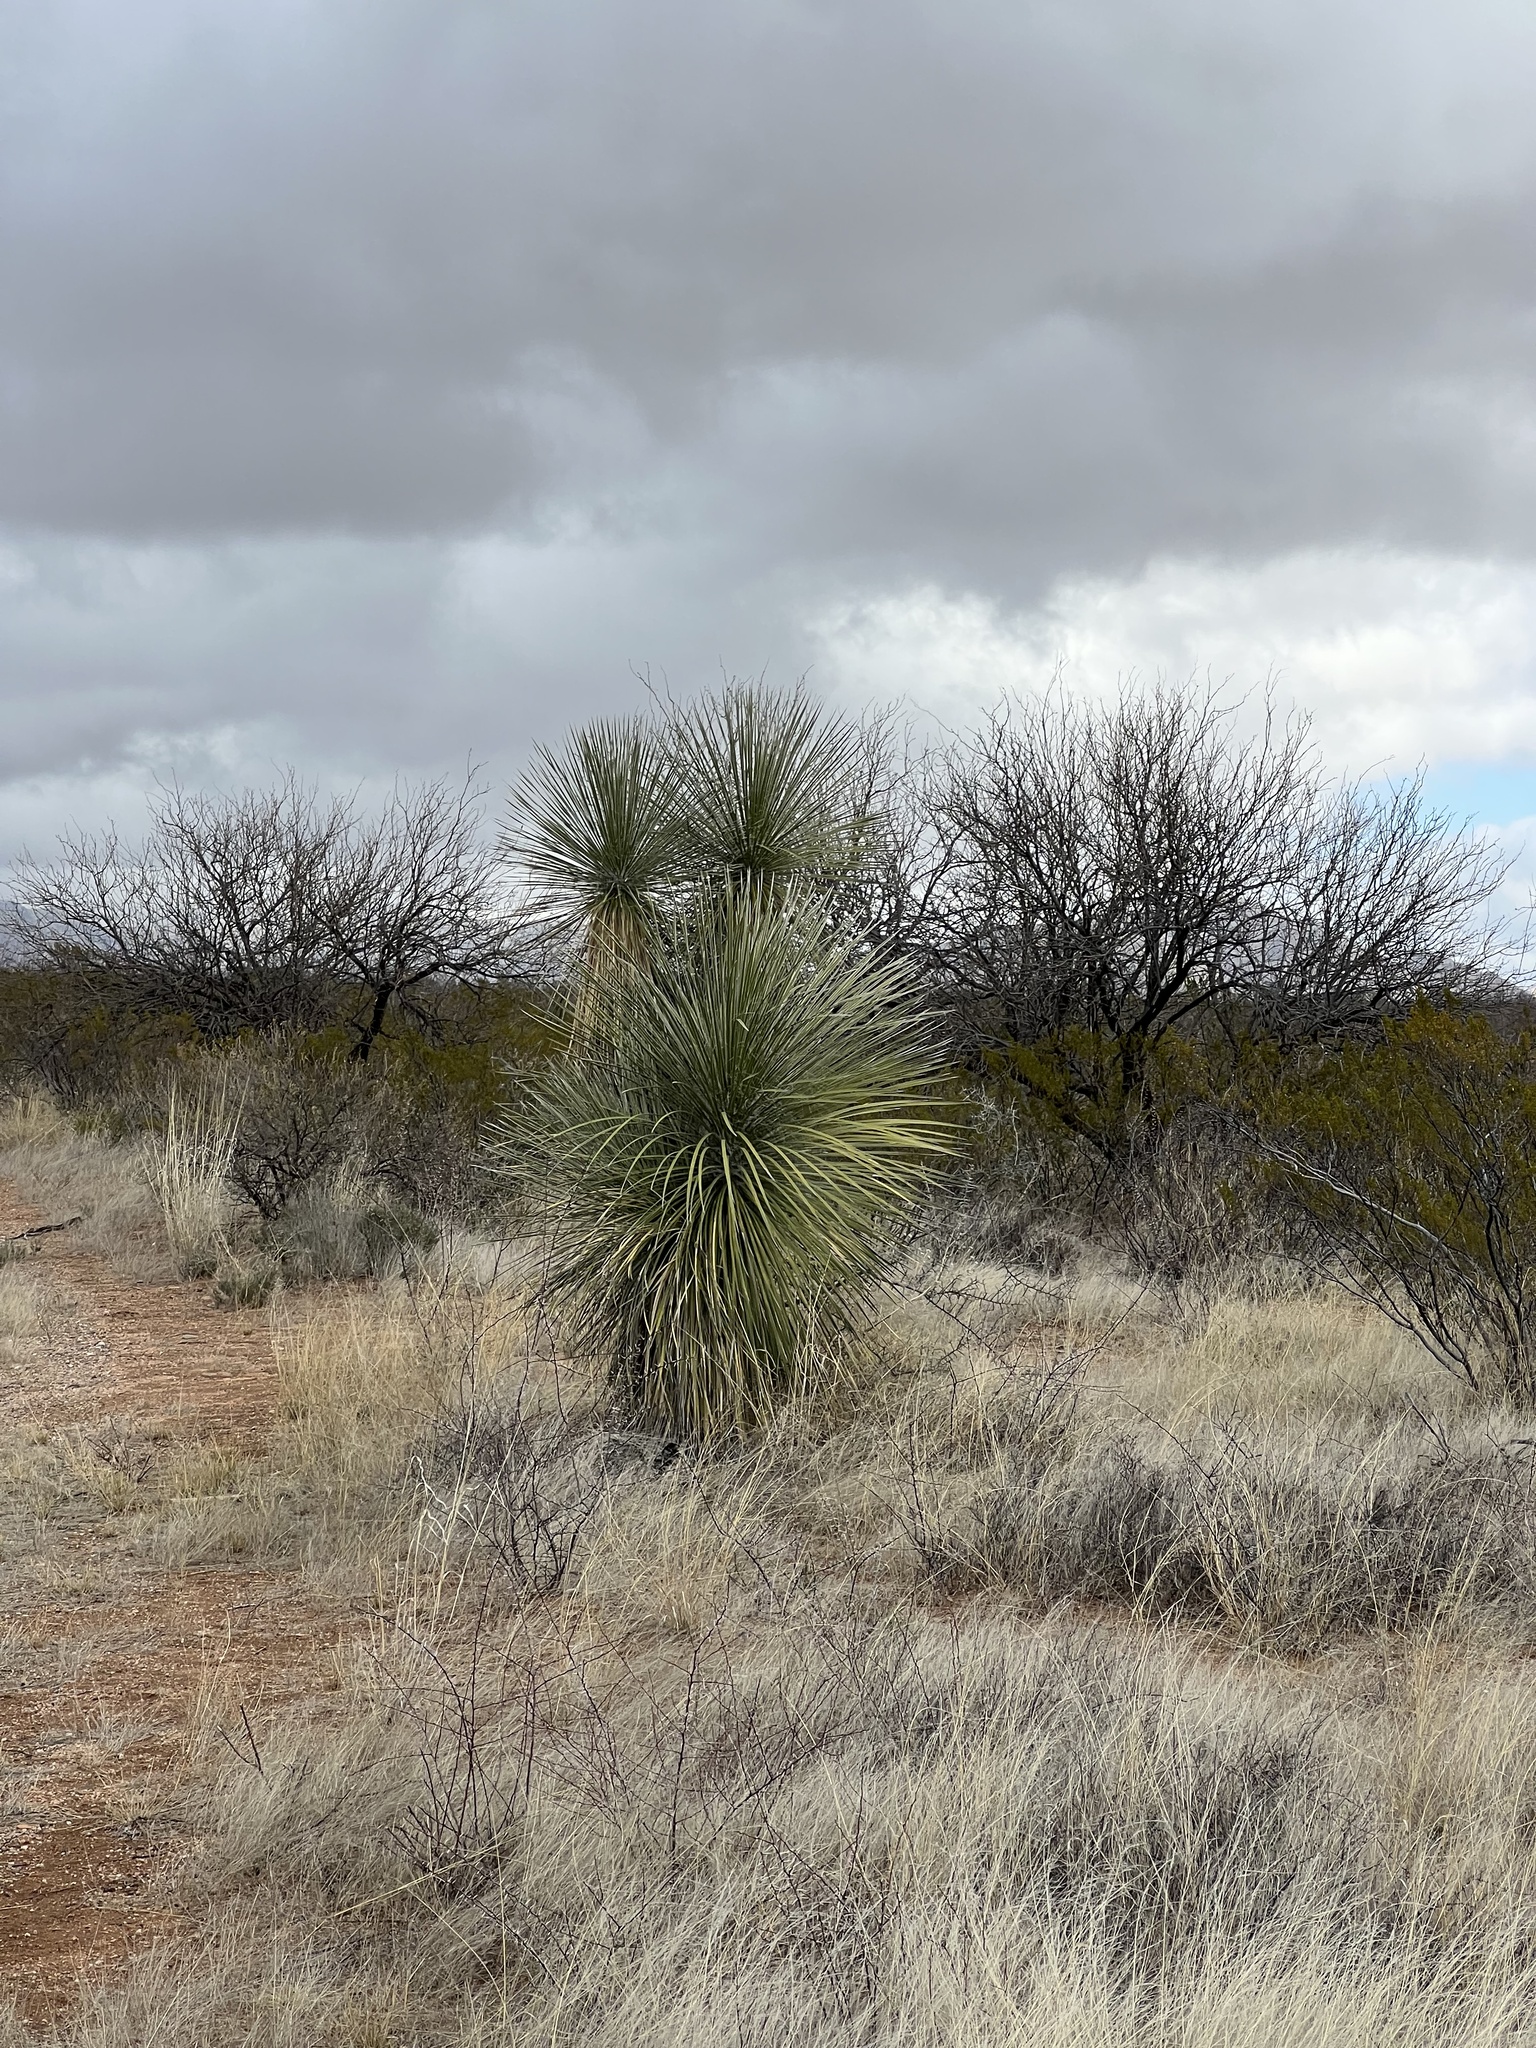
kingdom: Plantae
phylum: Tracheophyta
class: Liliopsida
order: Asparagales
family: Asparagaceae
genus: Yucca
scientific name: Yucca elata
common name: Palmella
